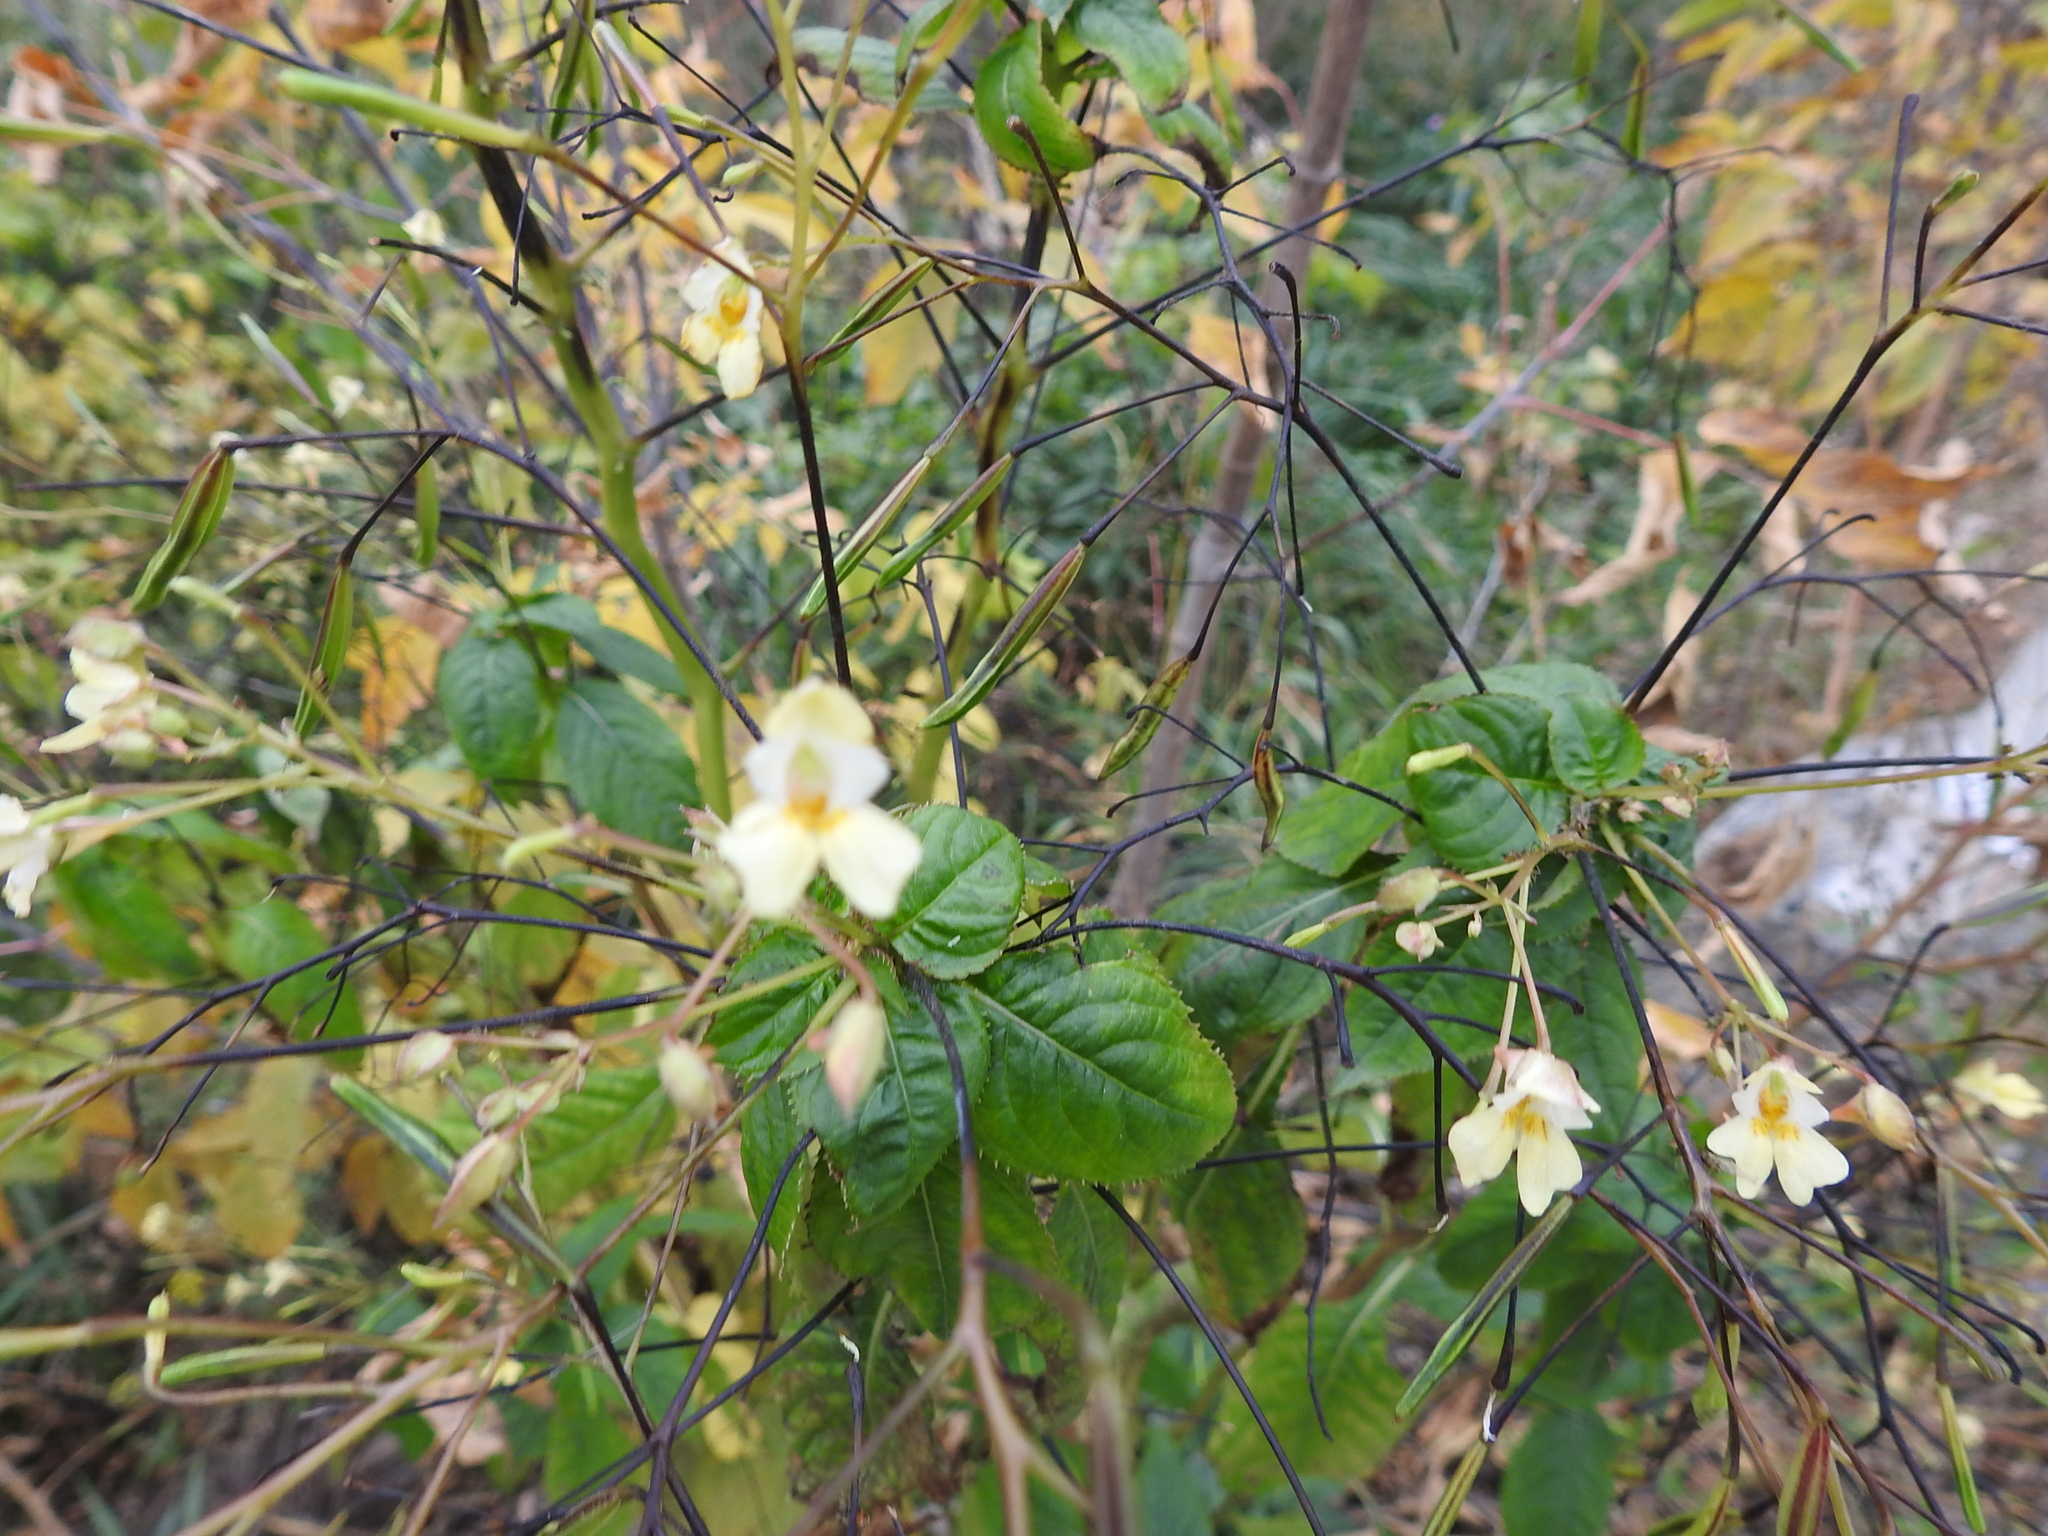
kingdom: Plantae
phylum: Tracheophyta
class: Magnoliopsida
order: Ericales
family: Balsaminaceae
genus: Impatiens
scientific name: Impatiens parviflora
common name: Small balsam
